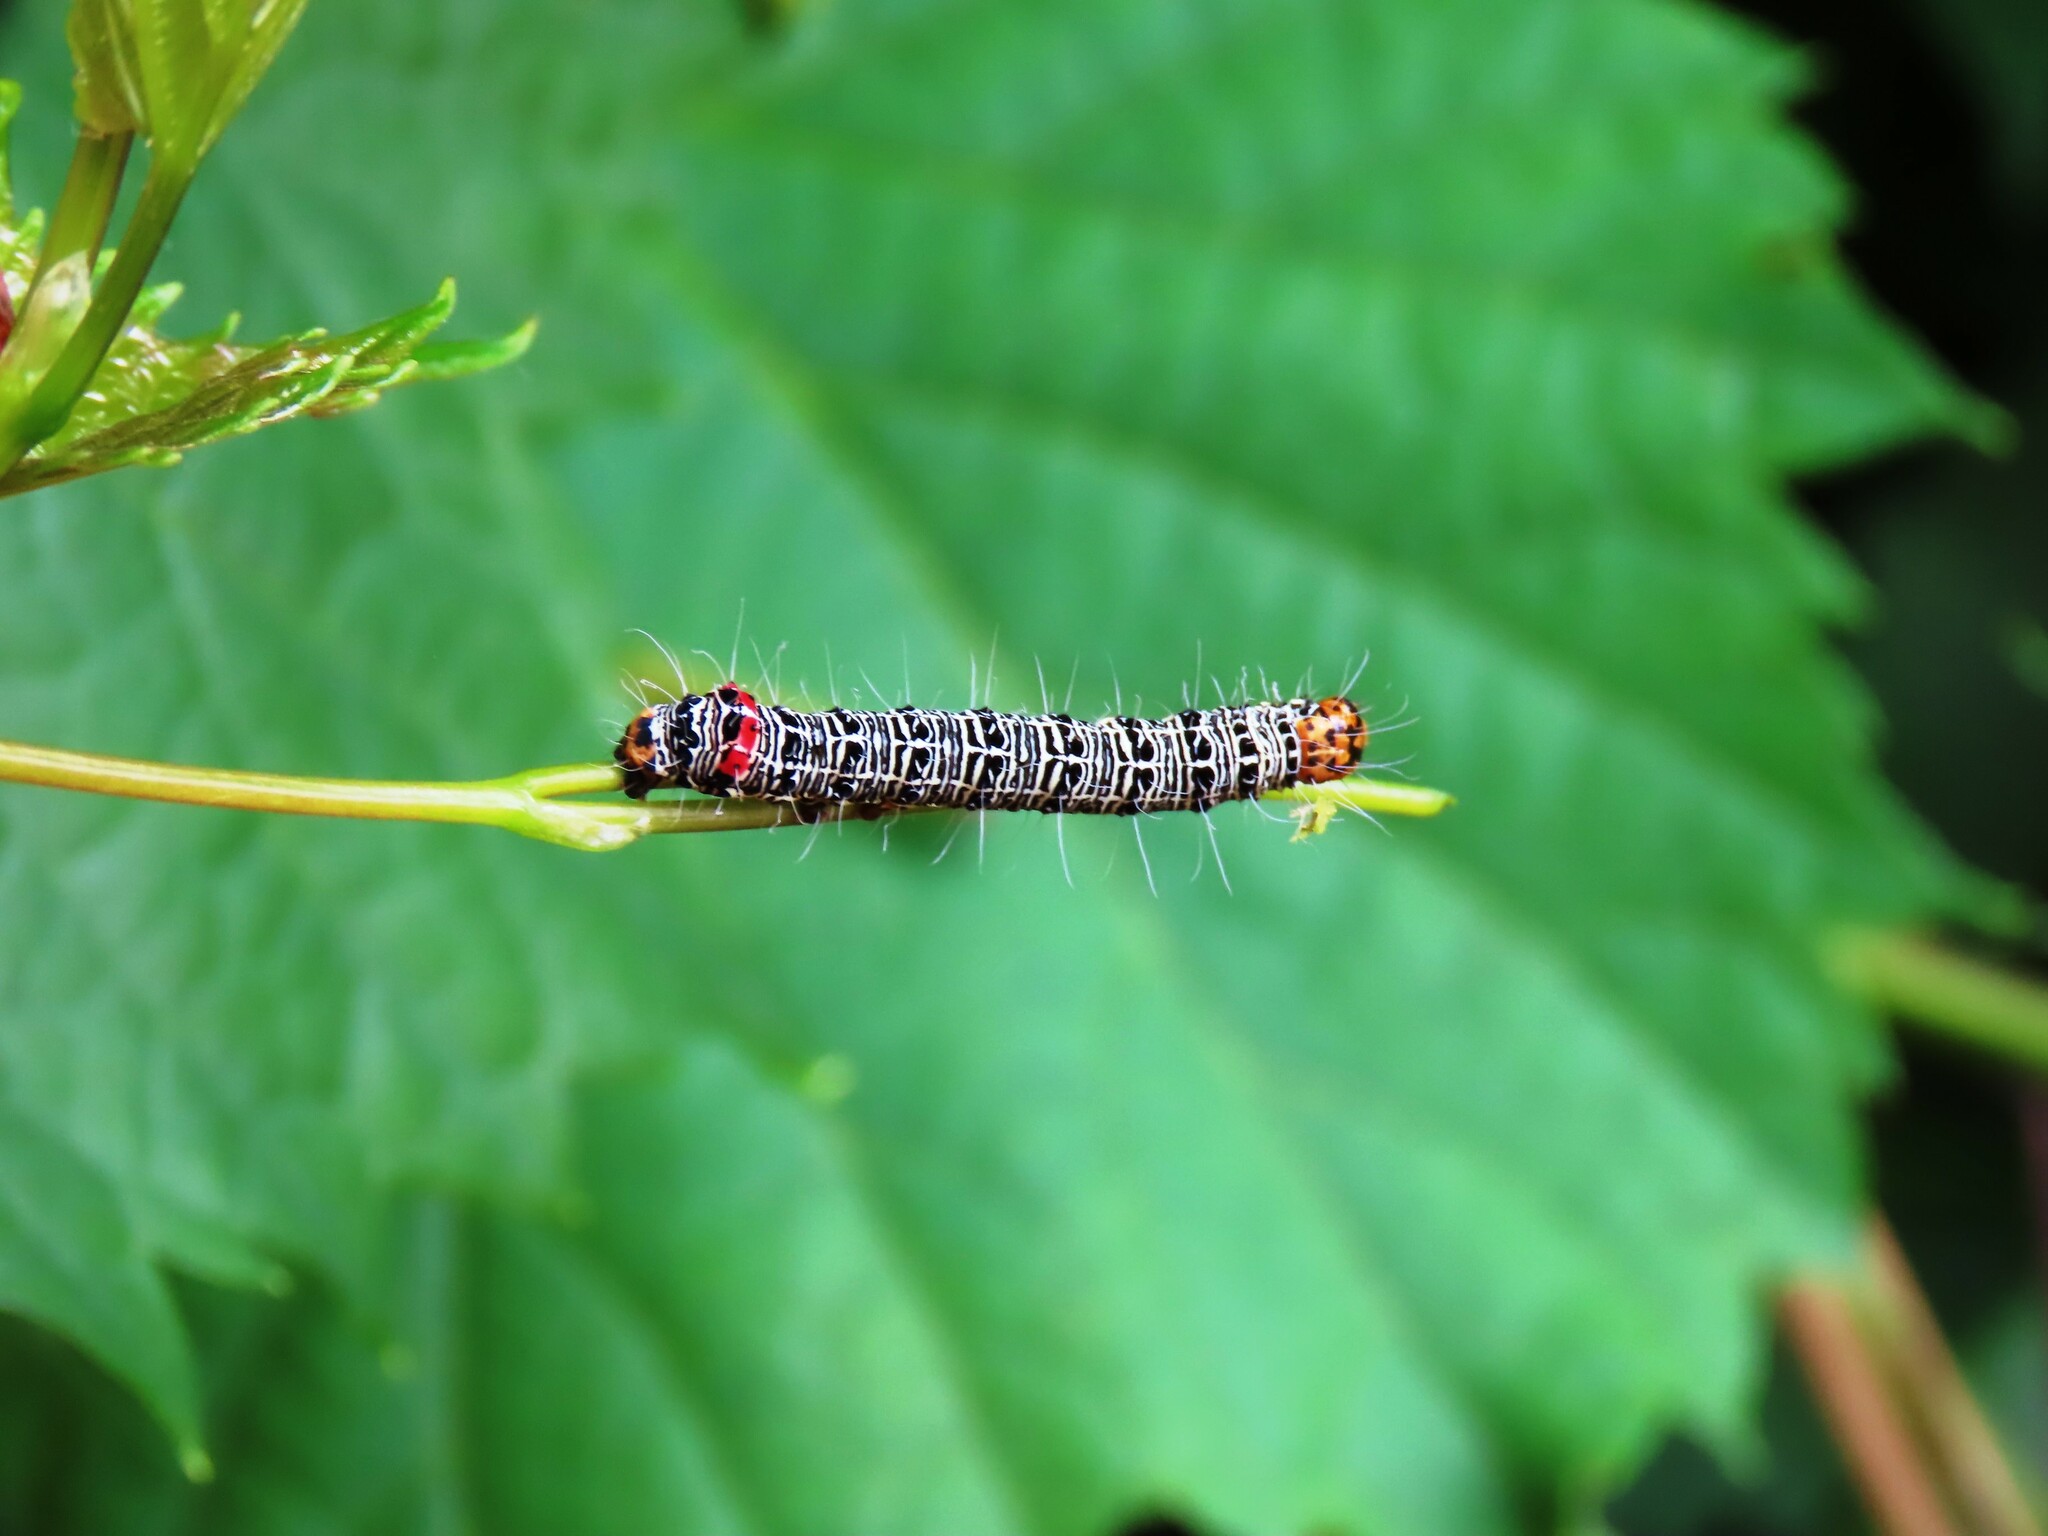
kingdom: Animalia
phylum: Arthropoda
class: Insecta
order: Lepidoptera
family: Noctuidae
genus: Phalaenoides
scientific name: Phalaenoides glycinae
